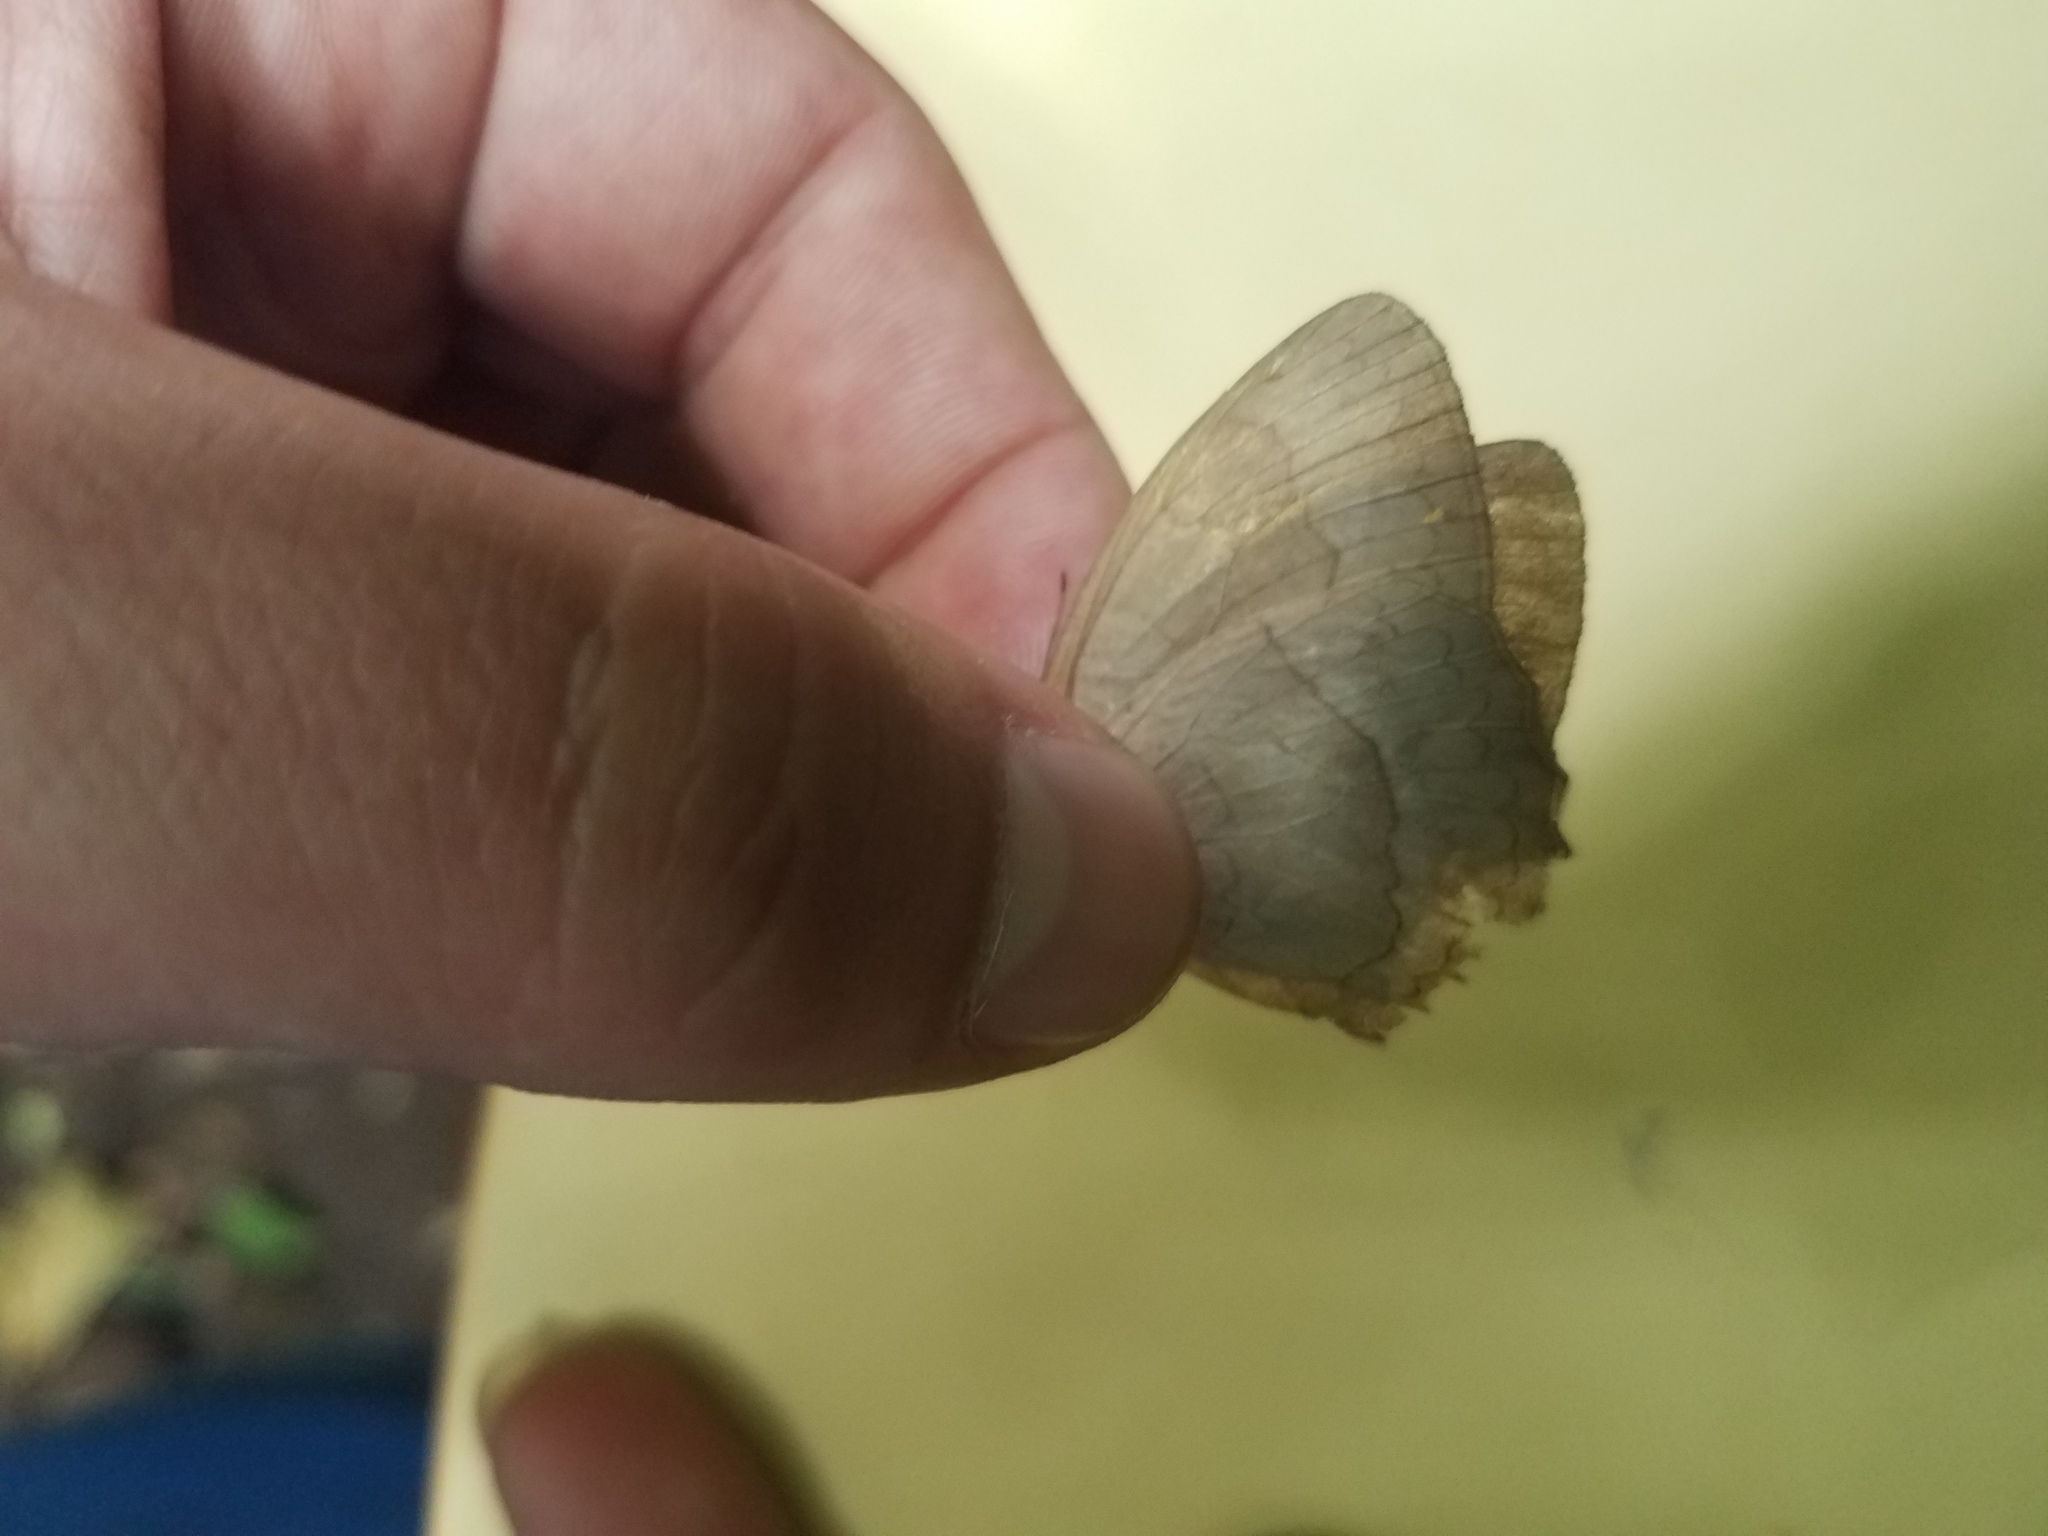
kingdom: Animalia
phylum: Arthropoda
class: Insecta
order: Lepidoptera
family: Nymphalidae
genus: Taygetina
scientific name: Taygetina kerea
